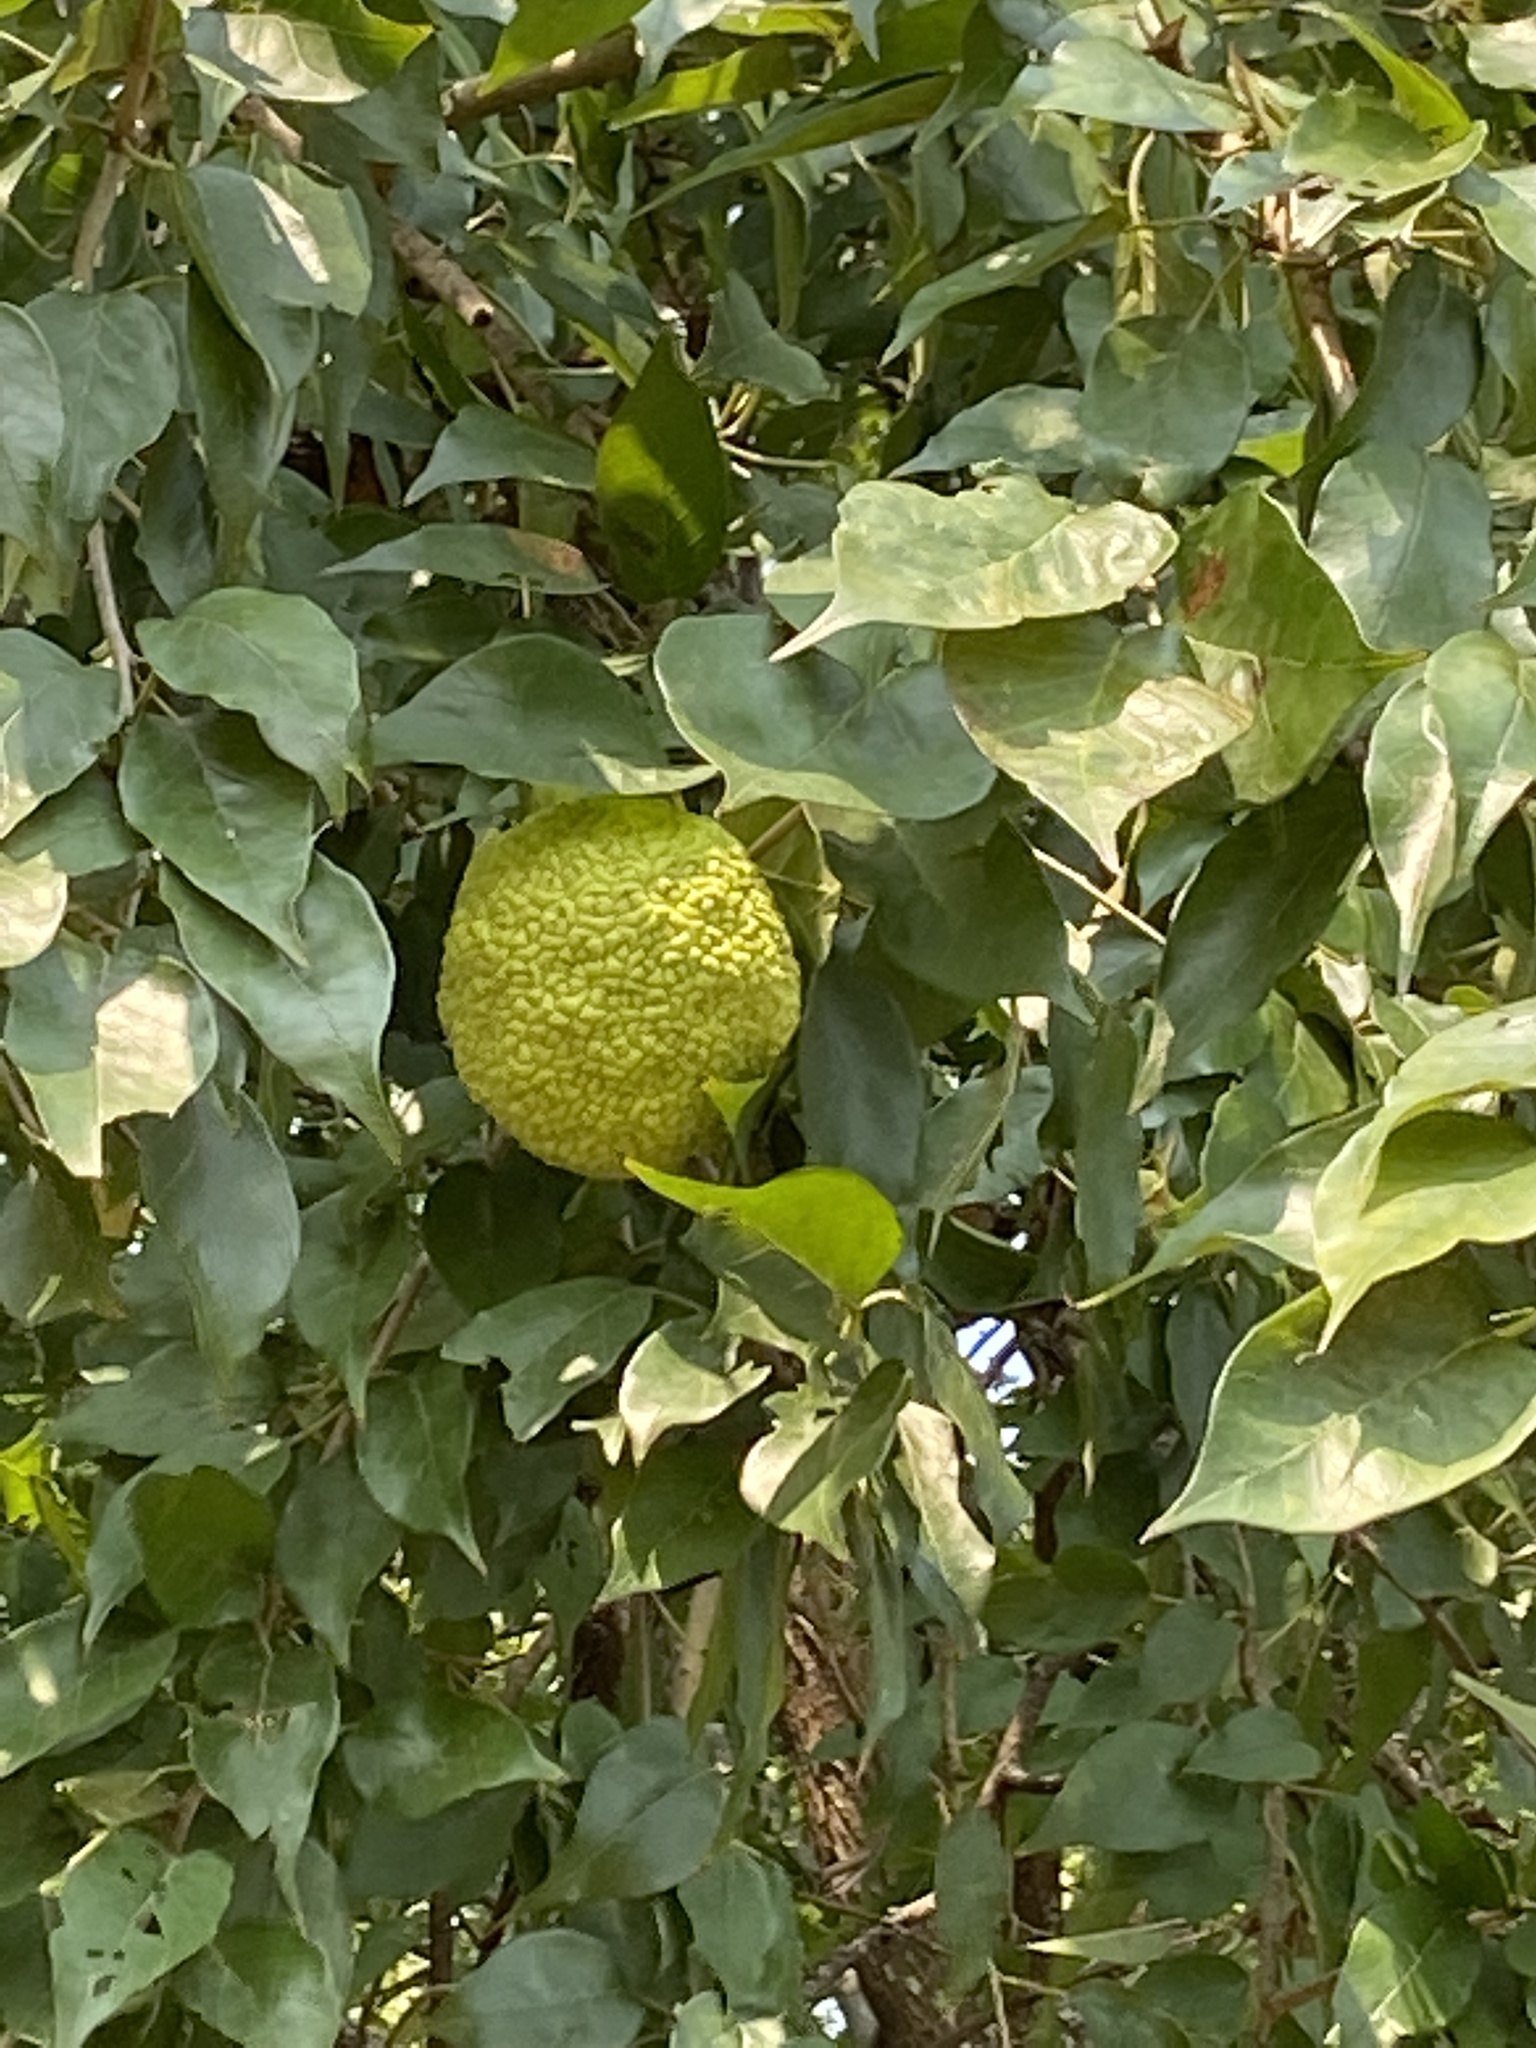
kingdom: Plantae
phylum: Tracheophyta
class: Magnoliopsida
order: Rosales
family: Moraceae
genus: Maclura
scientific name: Maclura pomifera
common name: Osage-orange
